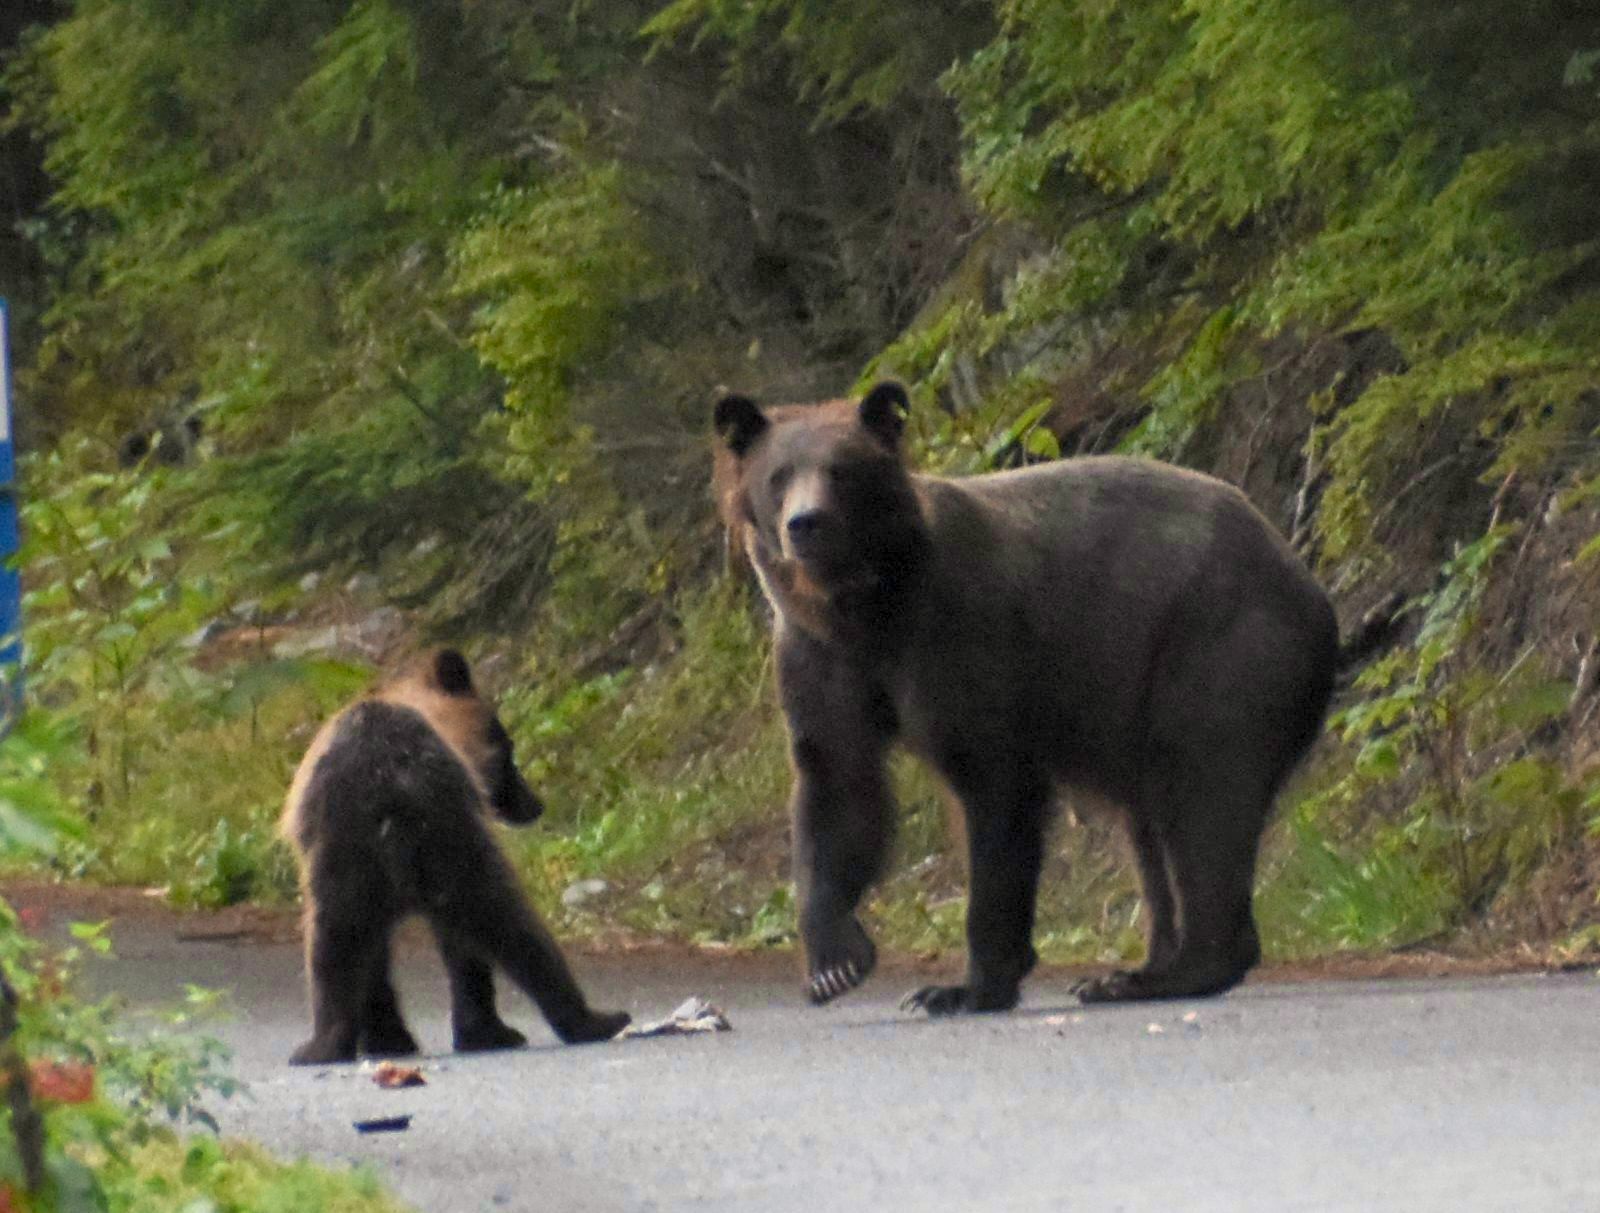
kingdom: Animalia
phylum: Chordata
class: Mammalia
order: Carnivora
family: Ursidae
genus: Ursus
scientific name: Ursus arctos
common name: Brown bear
